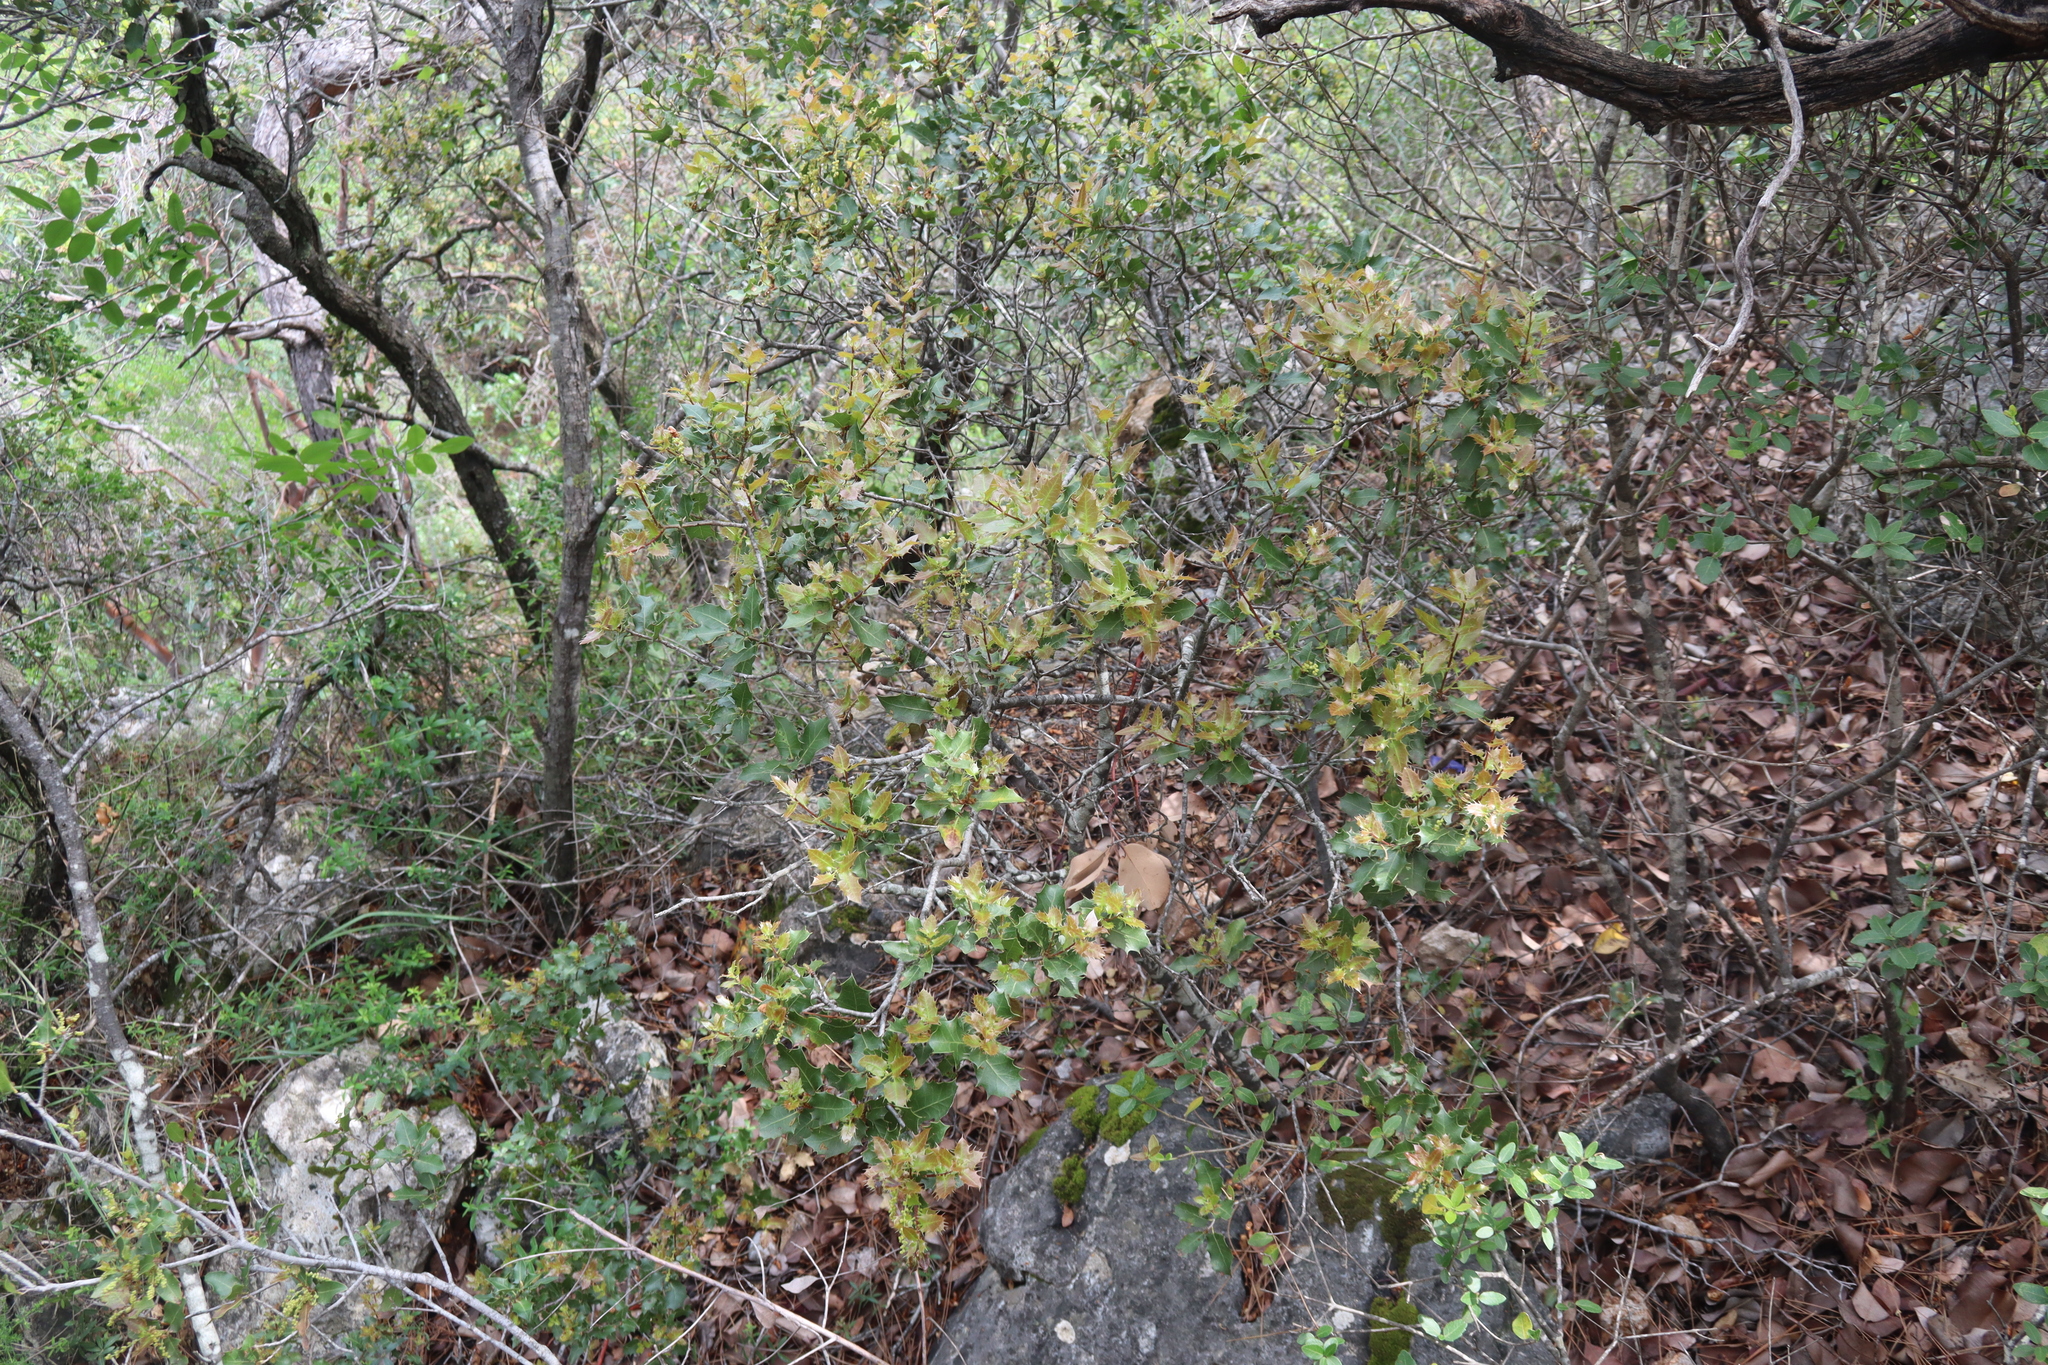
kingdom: Plantae
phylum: Tracheophyta
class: Magnoliopsida
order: Fagales
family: Fagaceae
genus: Quercus
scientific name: Quercus coccifera
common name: Kermes oak
